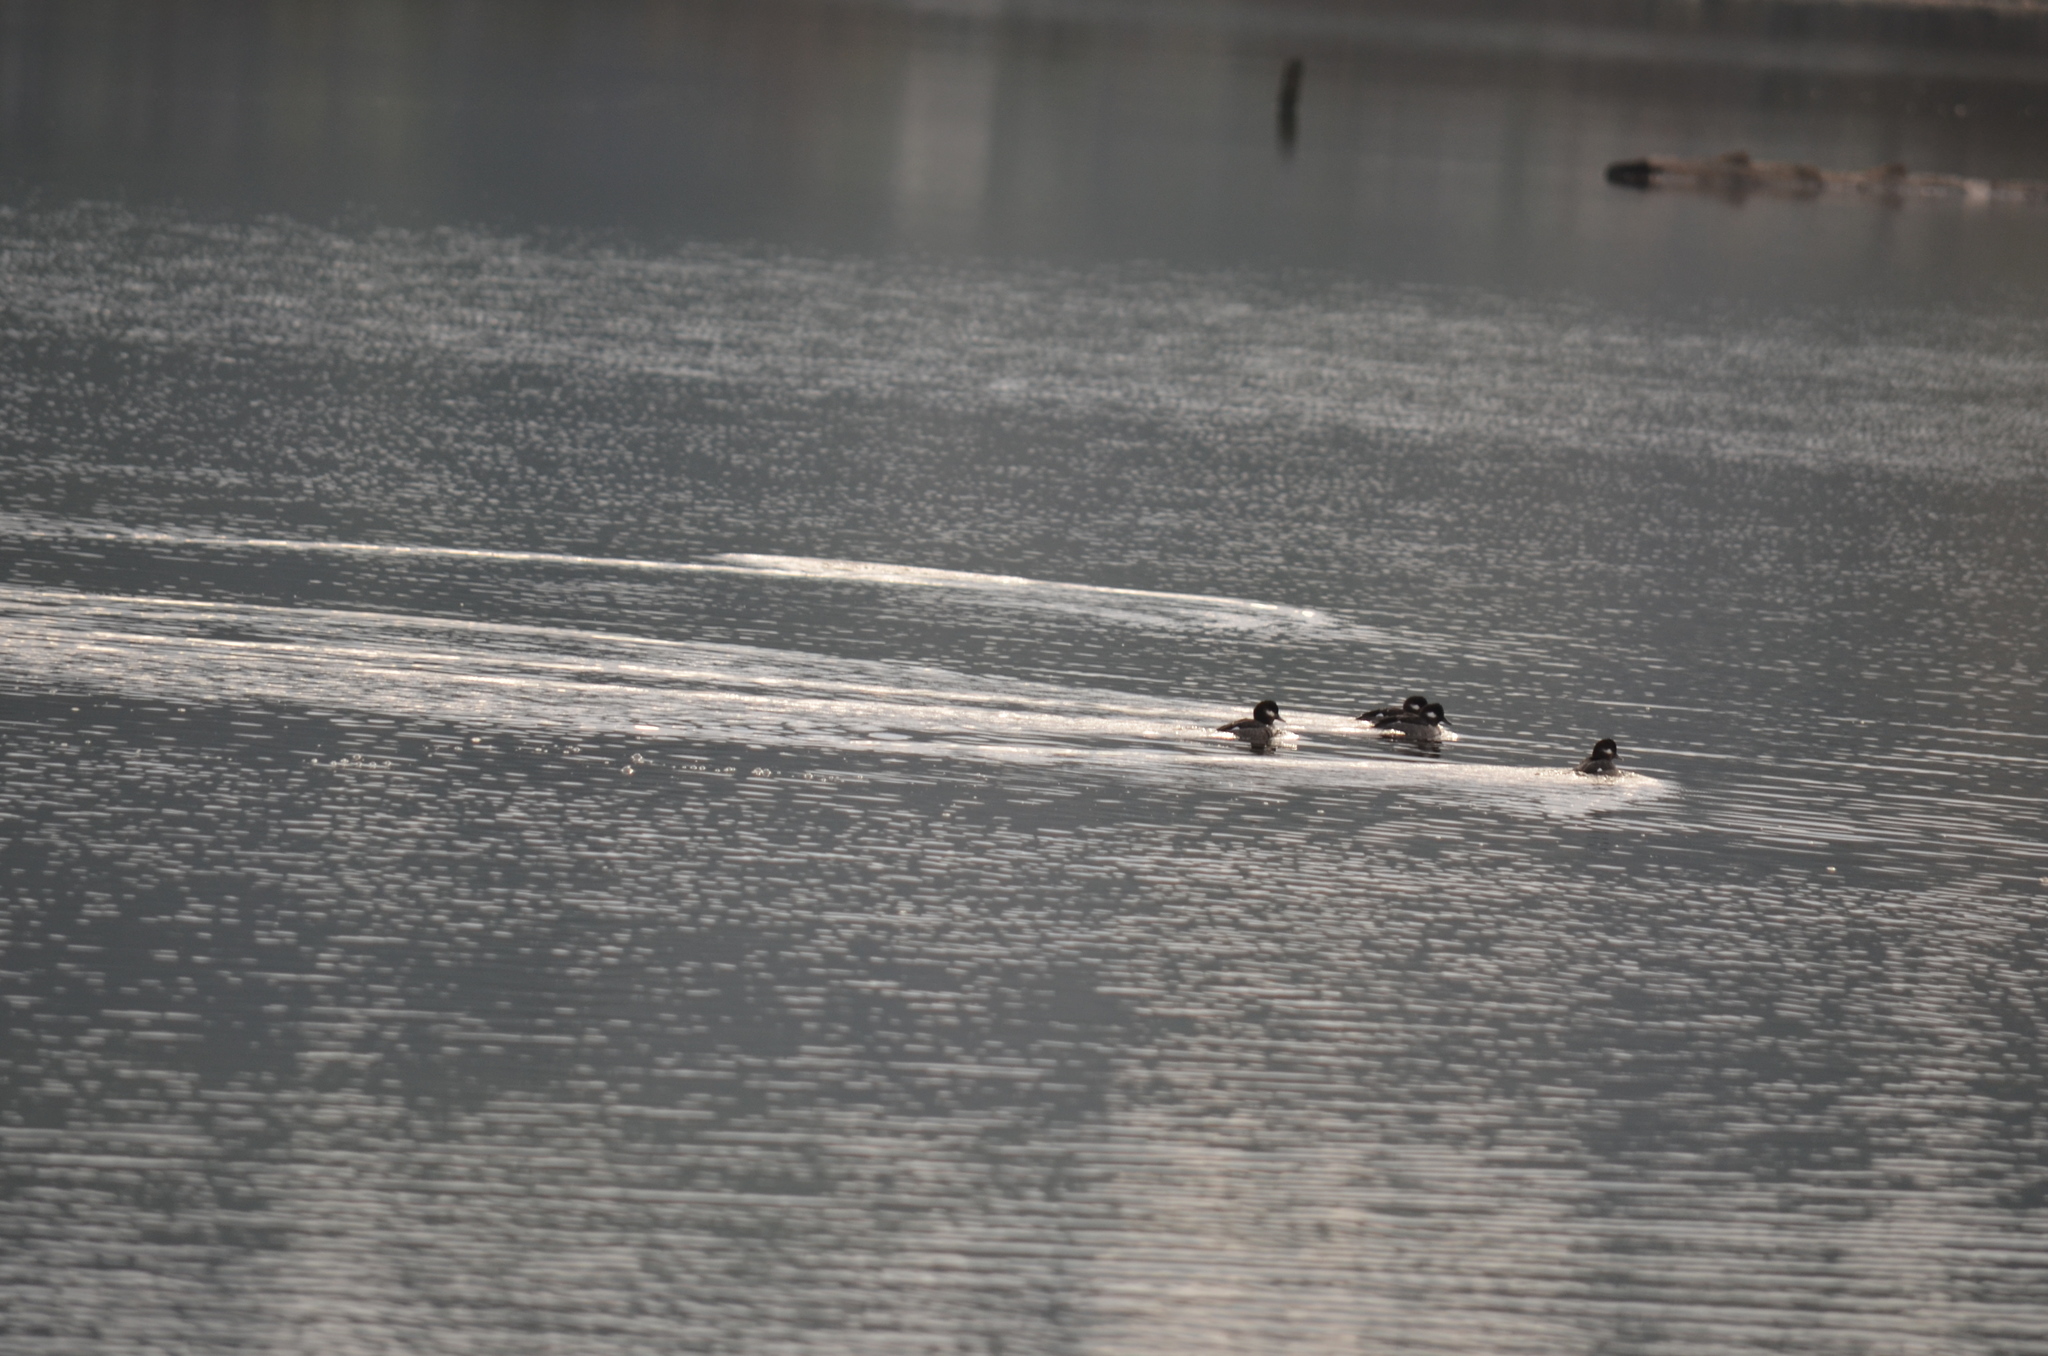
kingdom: Animalia
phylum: Chordata
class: Aves
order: Anseriformes
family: Anatidae
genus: Bucephala
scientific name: Bucephala albeola
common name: Bufflehead
